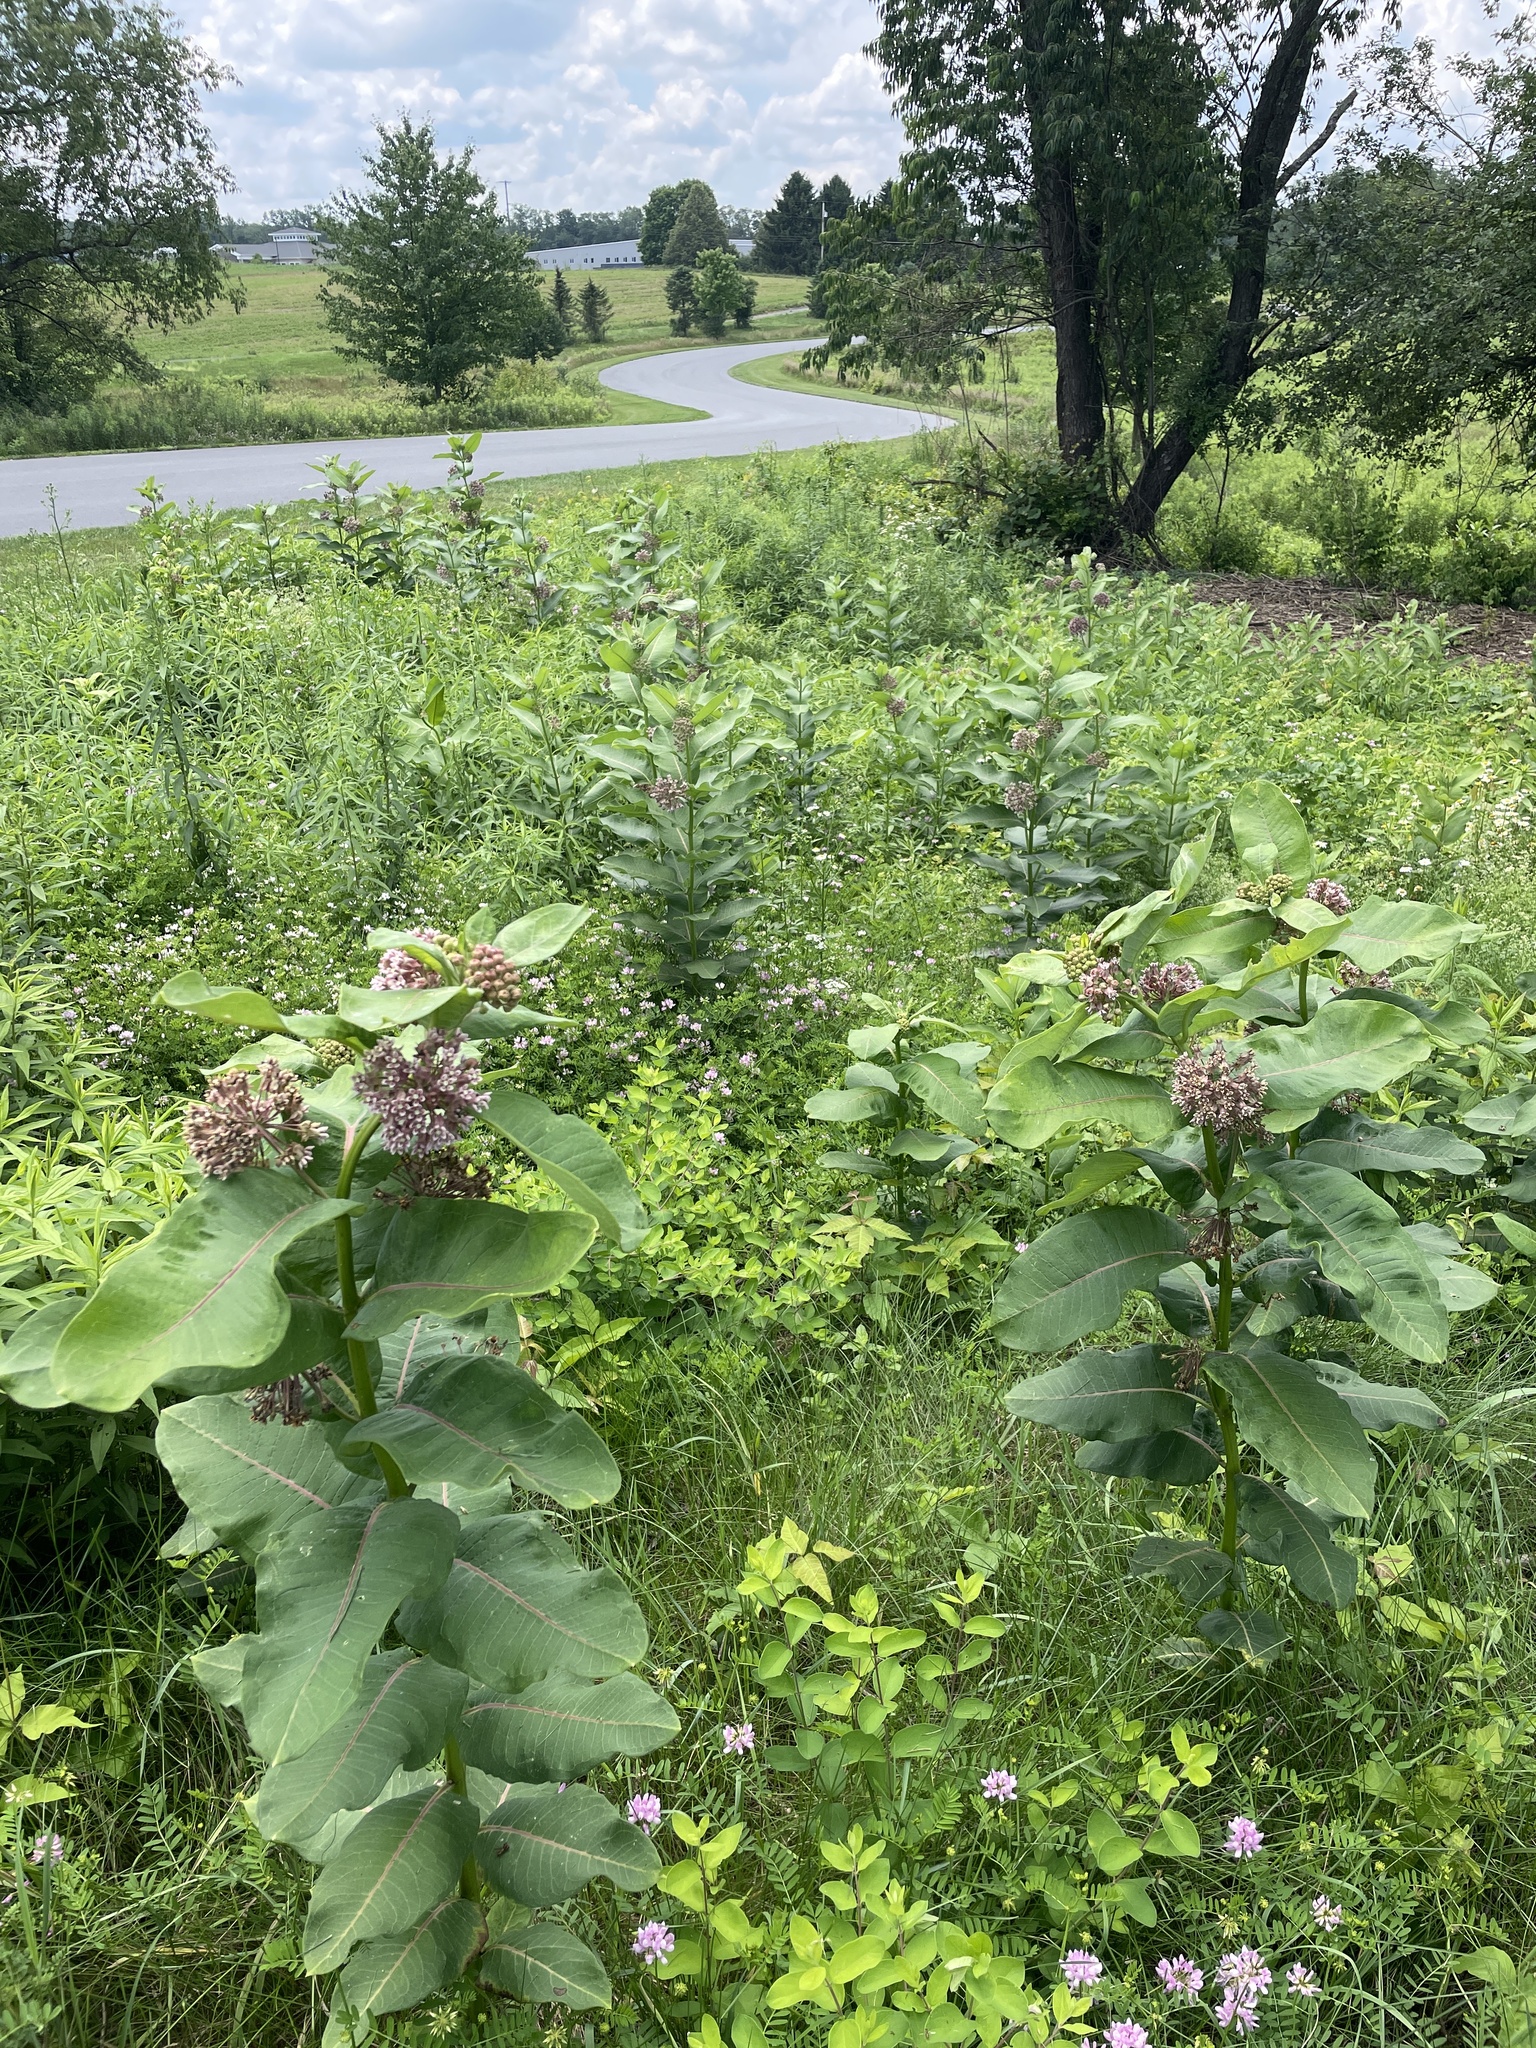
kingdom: Plantae
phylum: Tracheophyta
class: Magnoliopsida
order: Gentianales
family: Apocynaceae
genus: Asclepias
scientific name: Asclepias syriaca
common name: Common milkweed
